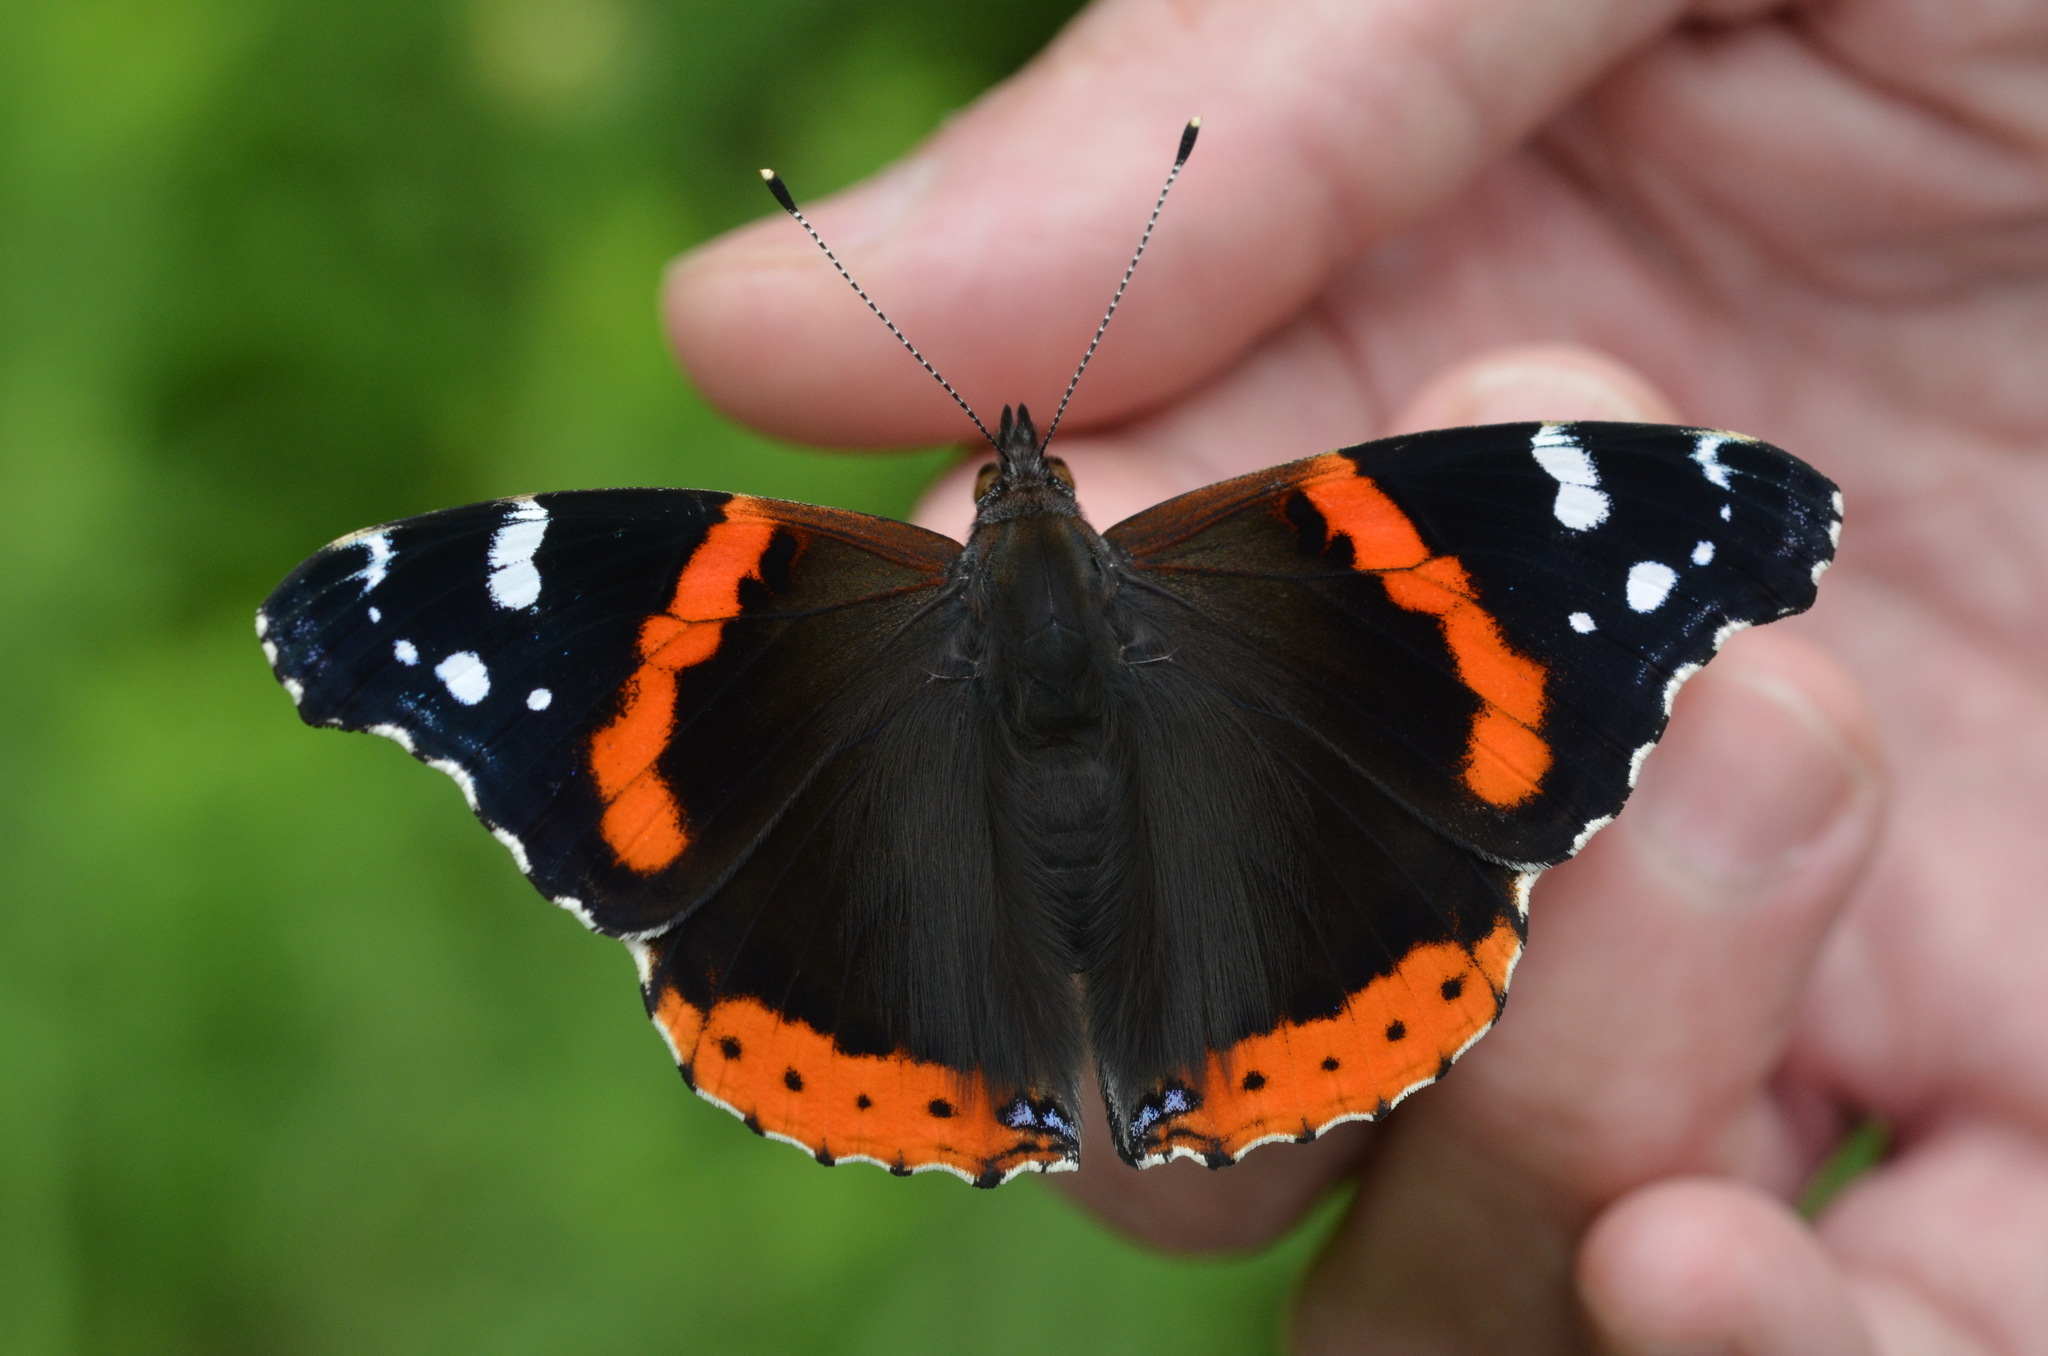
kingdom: Animalia
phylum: Arthropoda
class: Insecta
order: Lepidoptera
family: Nymphalidae
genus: Vanessa
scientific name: Vanessa atalanta
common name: Red admiral
